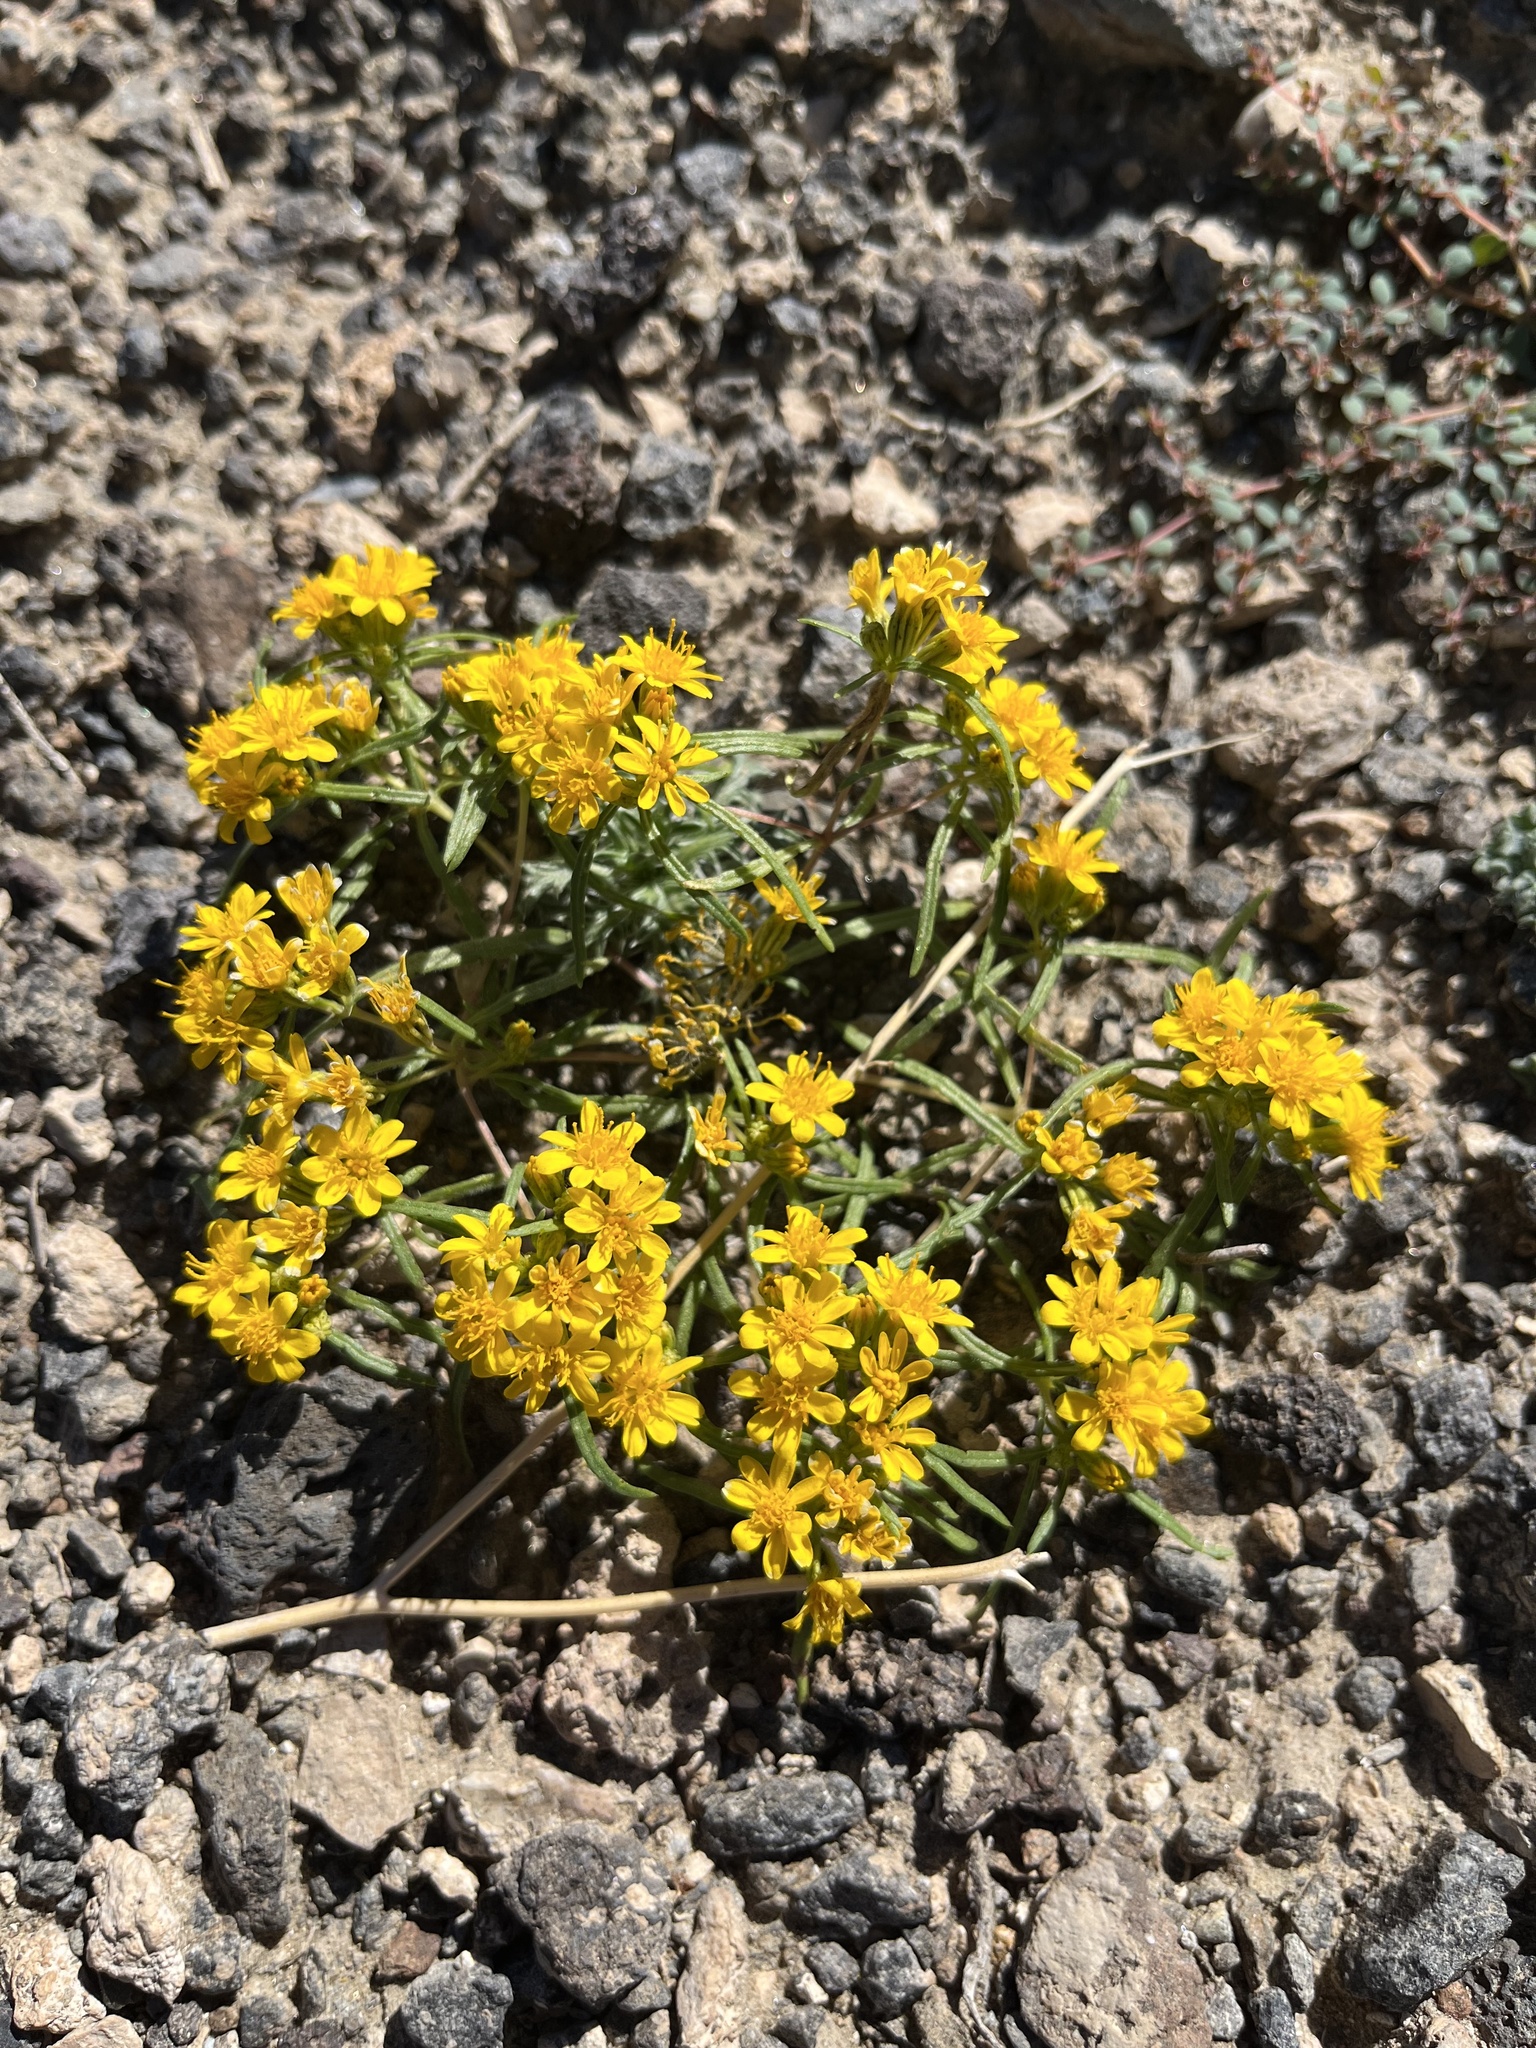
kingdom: Plantae
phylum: Tracheophyta
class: Magnoliopsida
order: Asterales
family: Asteraceae
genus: Pectis
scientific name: Pectis papposa
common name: Many-bristle chinchweed
